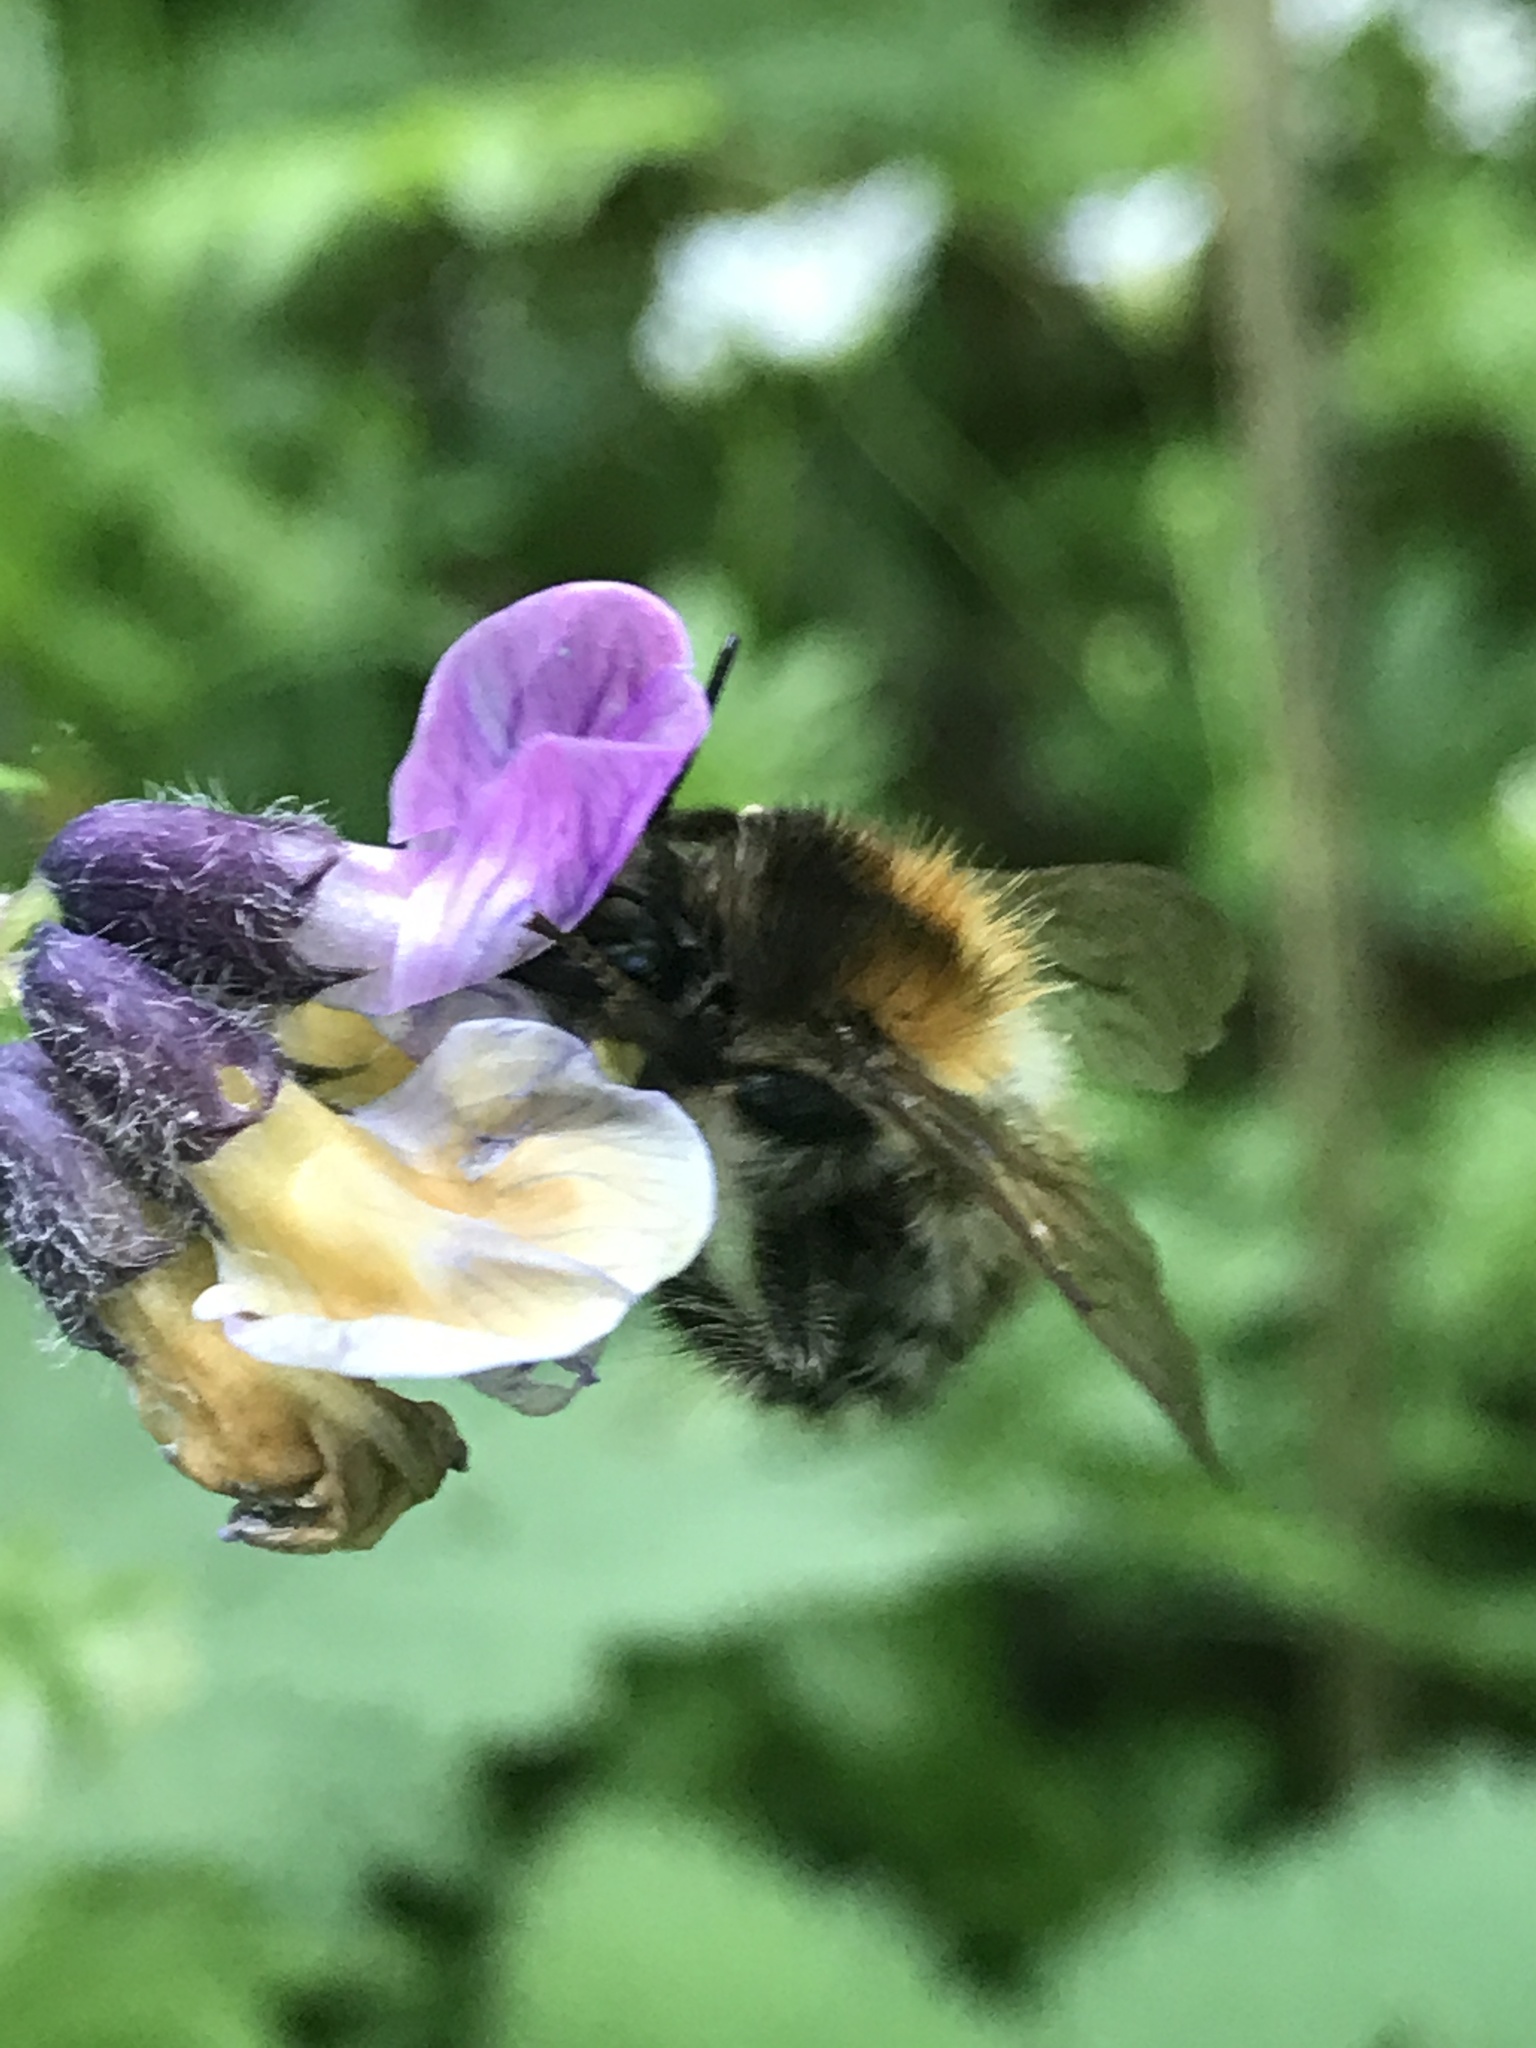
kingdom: Animalia
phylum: Arthropoda
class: Insecta
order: Hymenoptera
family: Apidae
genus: Bombus
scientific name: Bombus pascuorum
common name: Common carder bee
